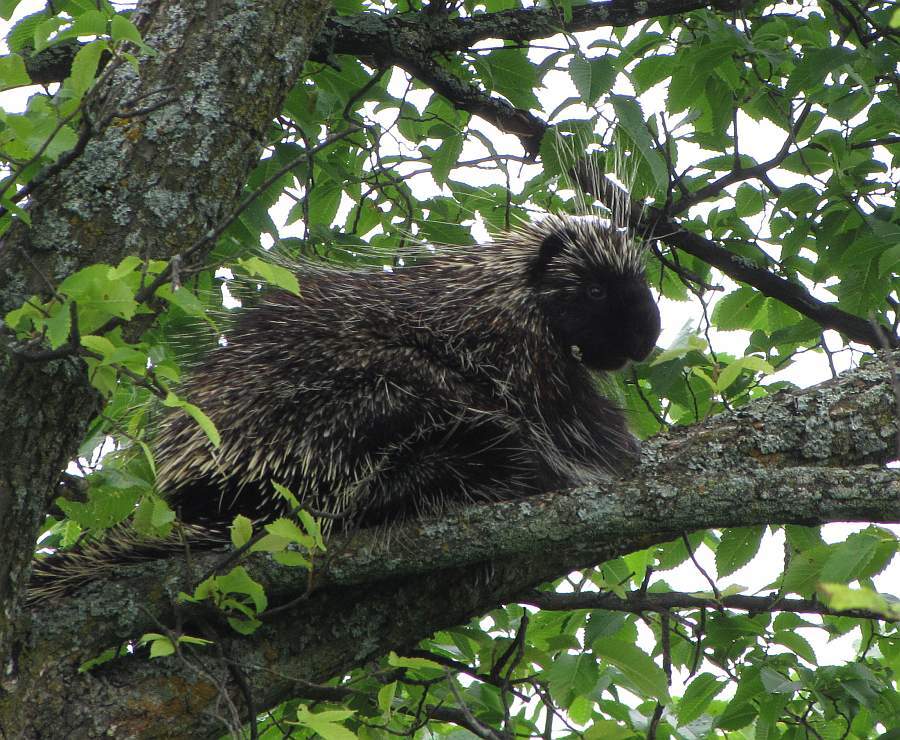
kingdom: Animalia
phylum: Chordata
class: Mammalia
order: Rodentia
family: Erethizontidae
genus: Erethizon
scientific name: Erethizon dorsatus
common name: North american porcupine
